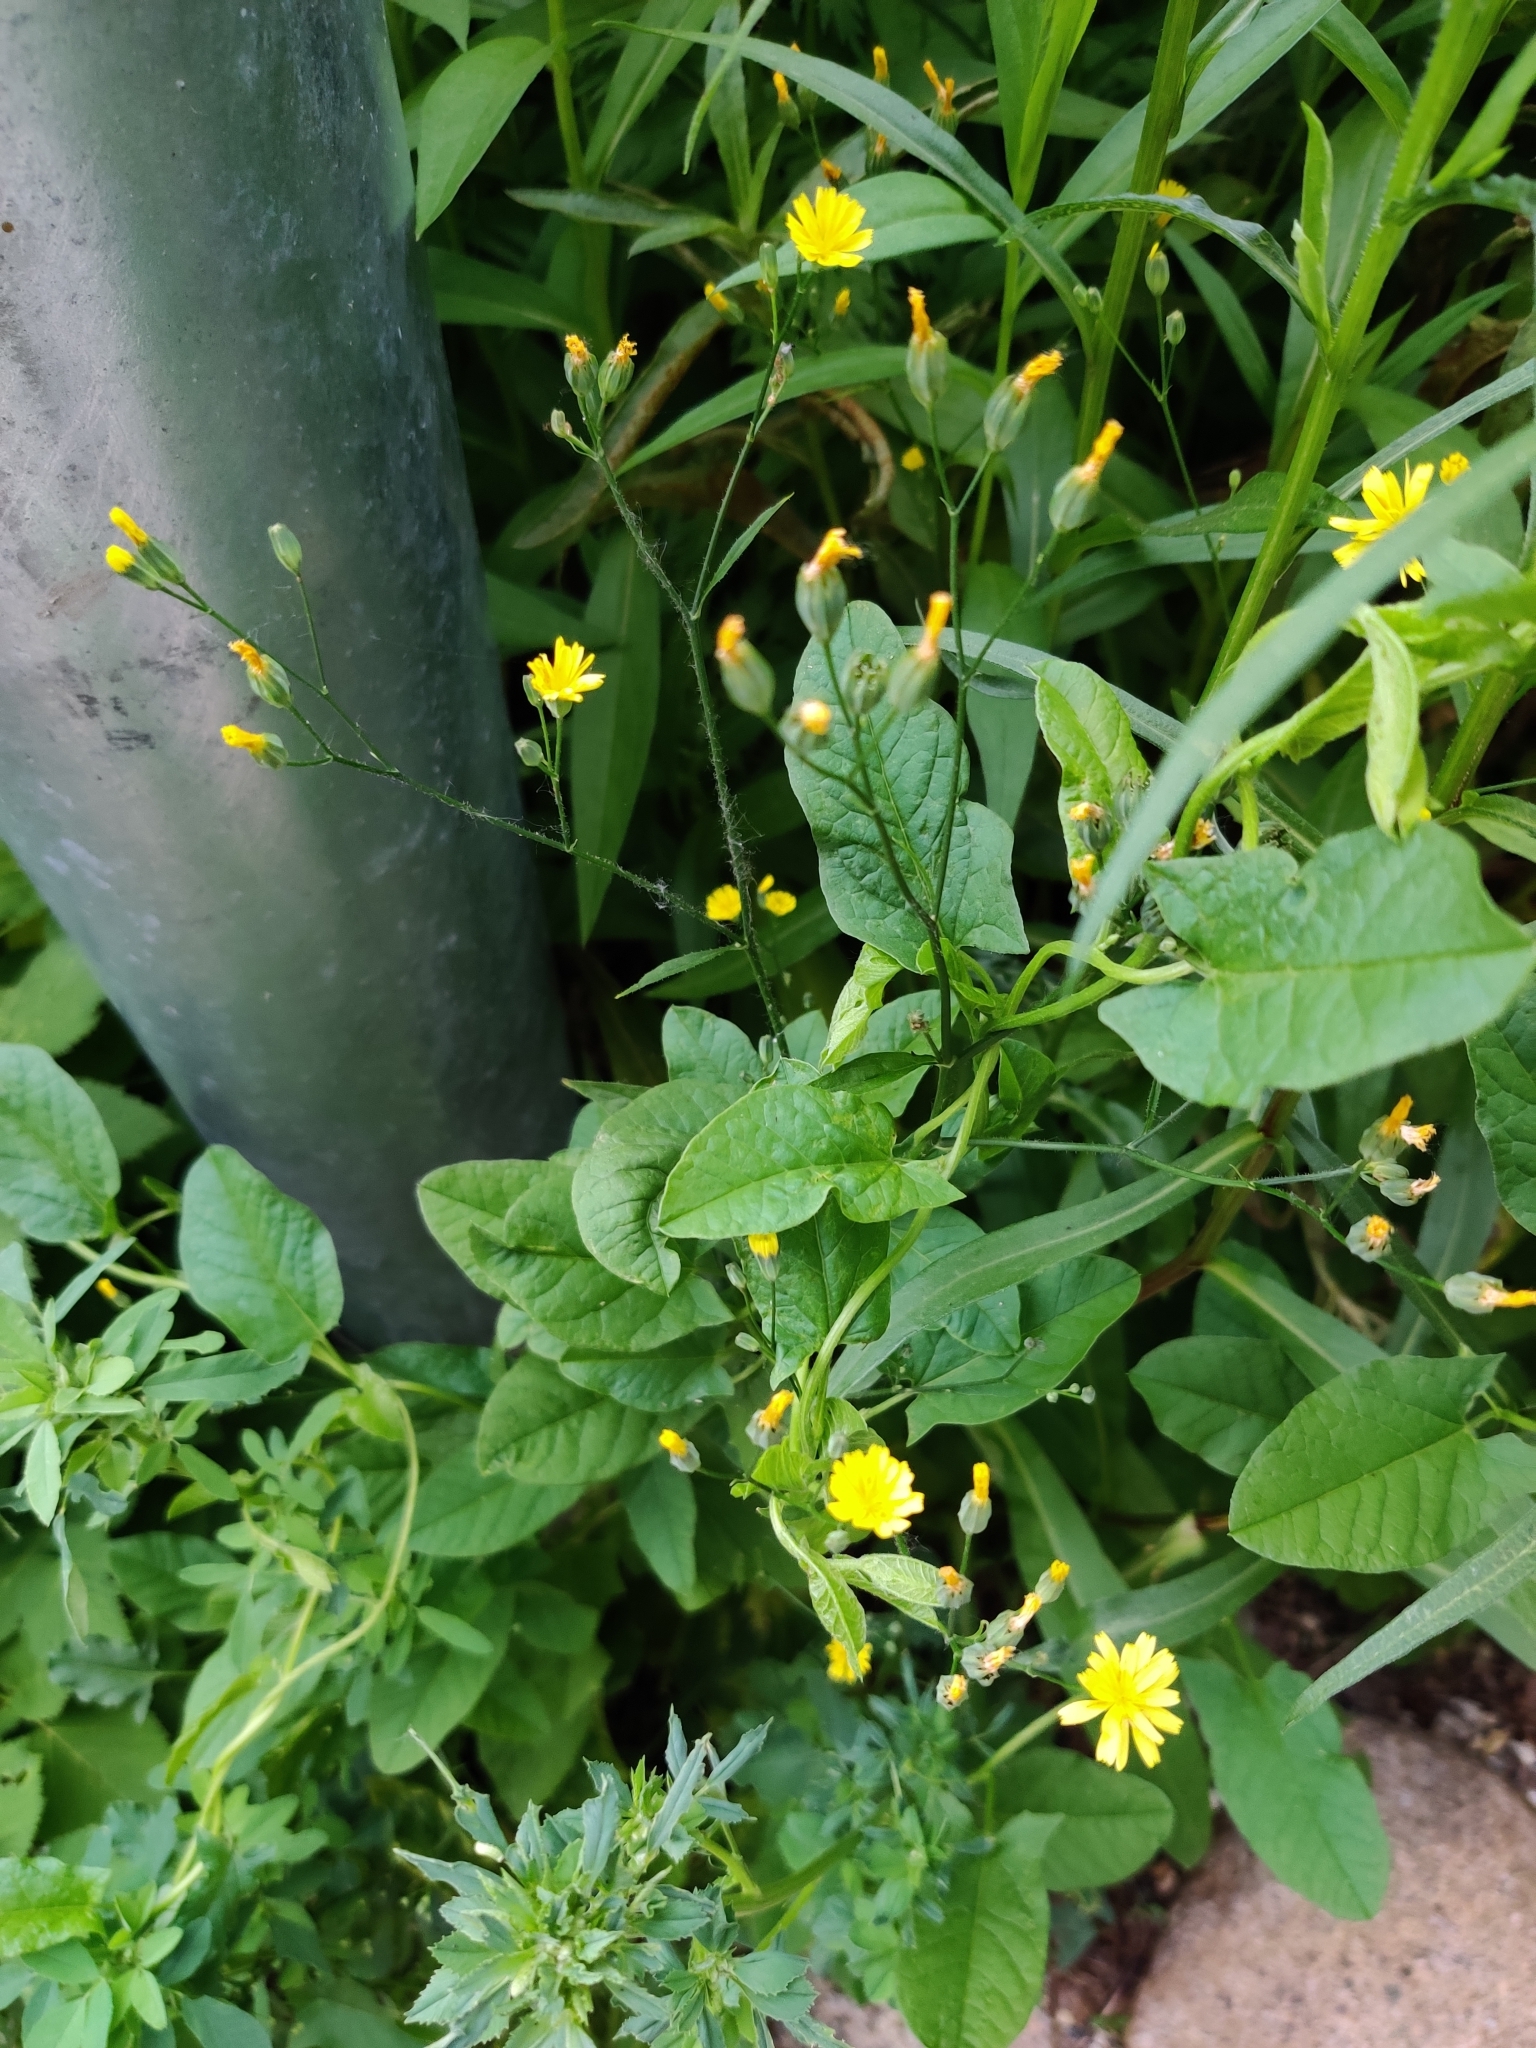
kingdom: Plantae
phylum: Tracheophyta
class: Magnoliopsida
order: Asterales
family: Asteraceae
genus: Lapsana
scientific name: Lapsana communis
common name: Nipplewort
